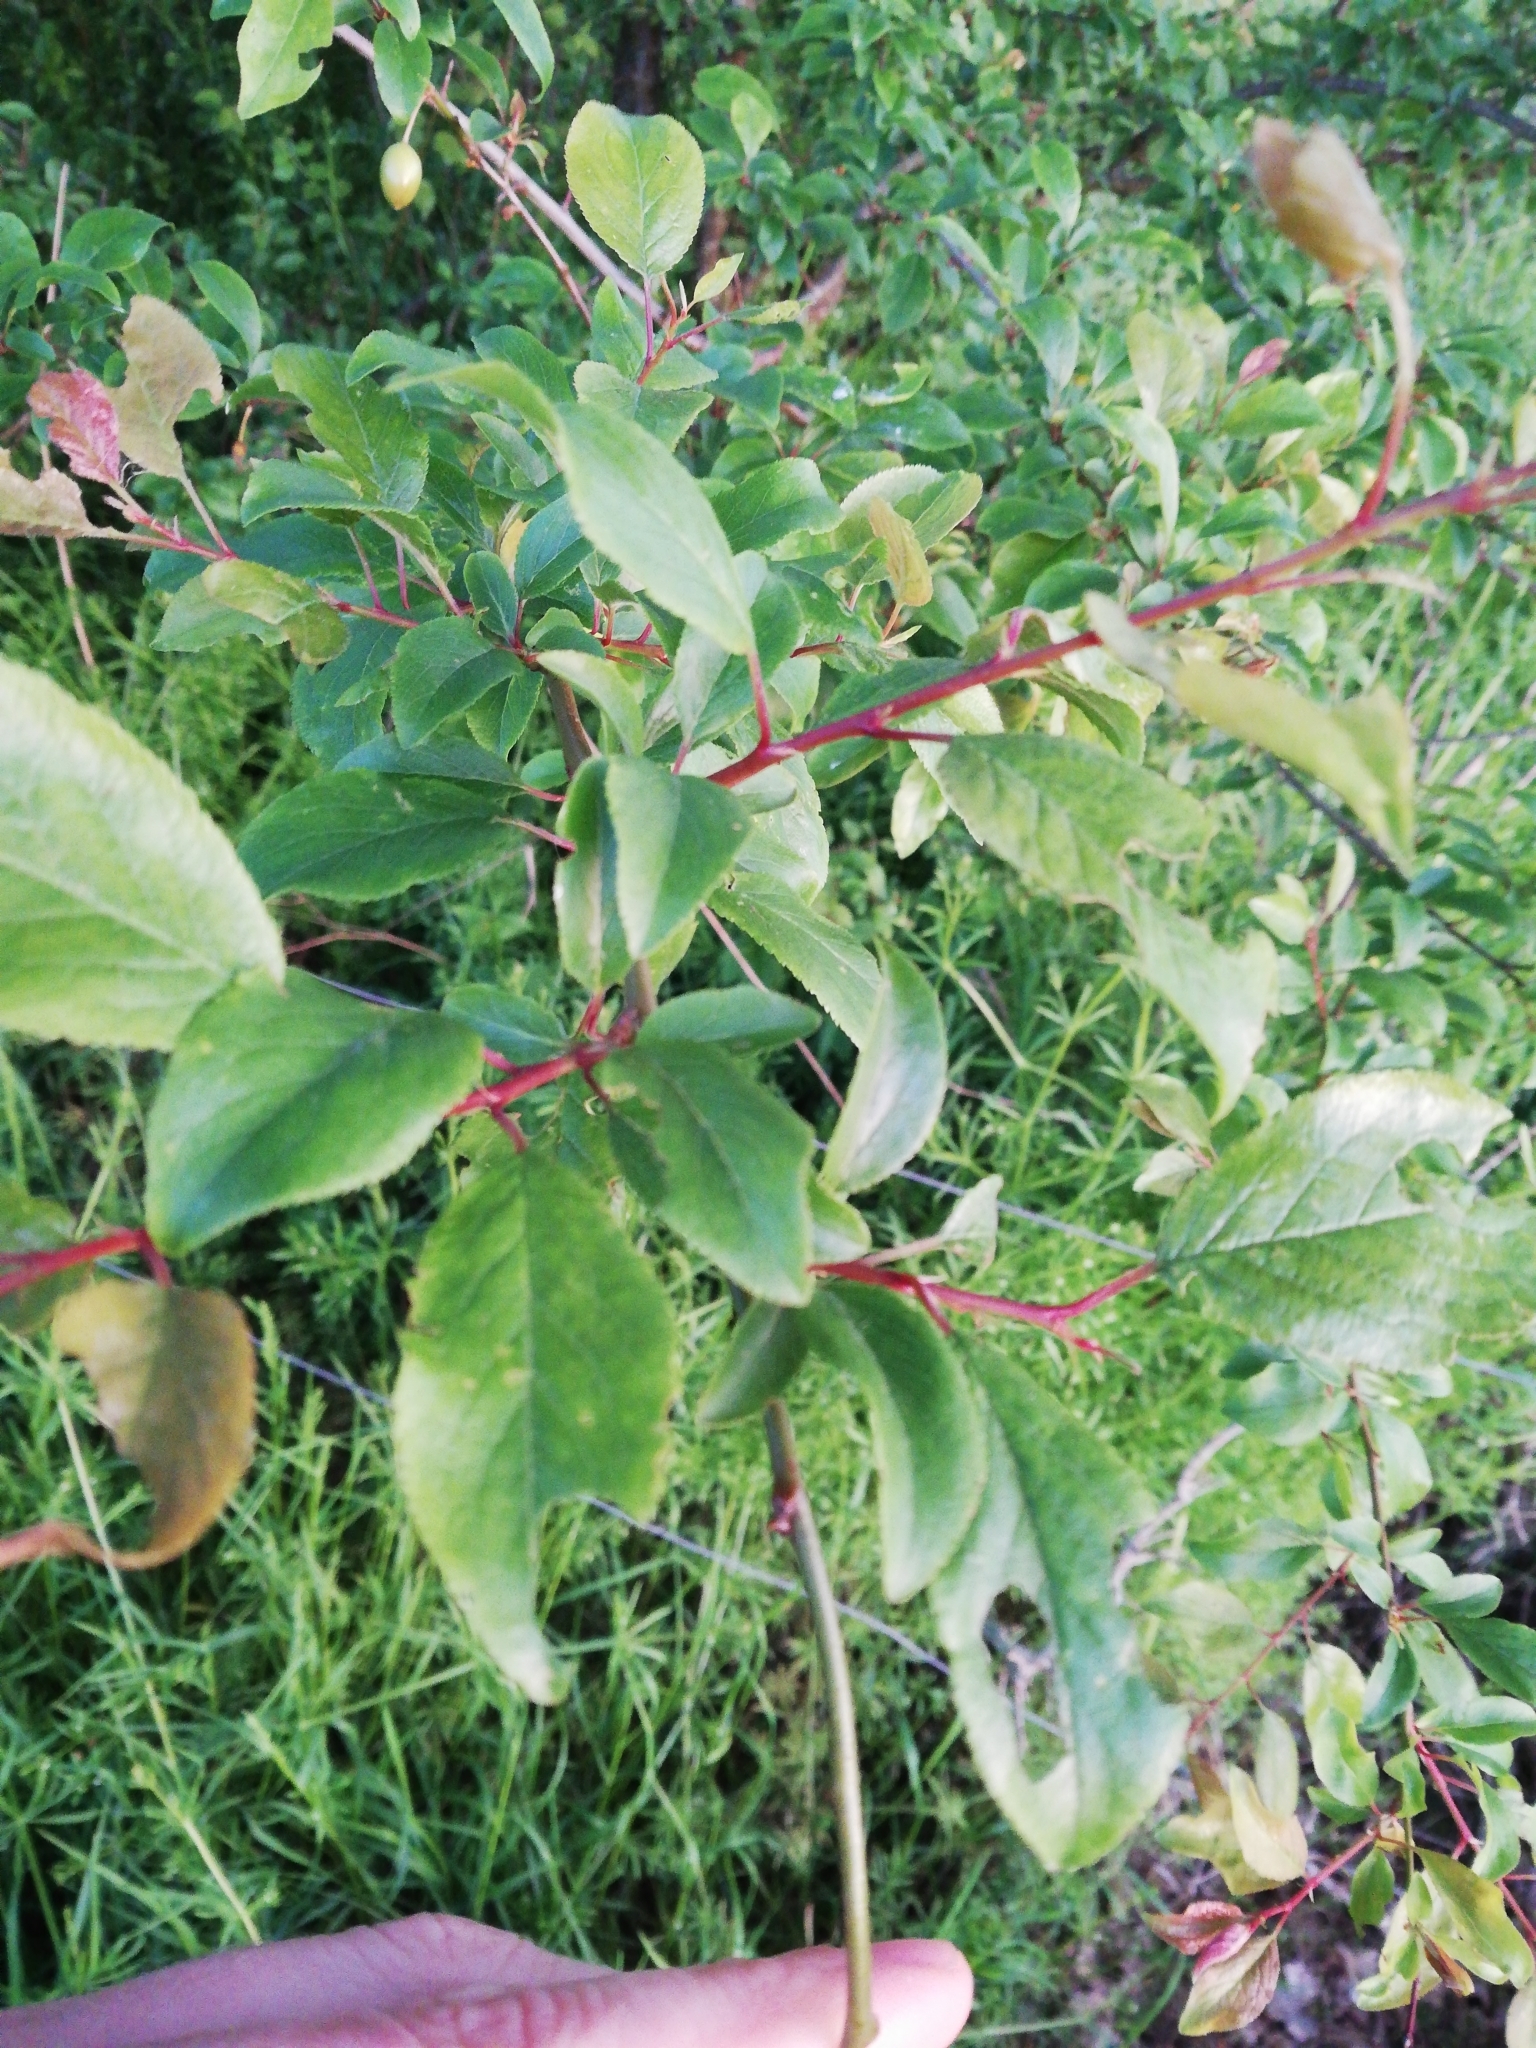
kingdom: Plantae
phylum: Tracheophyta
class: Magnoliopsida
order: Rosales
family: Rosaceae
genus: Prunus
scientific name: Prunus cerasifera
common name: Cherry plum
